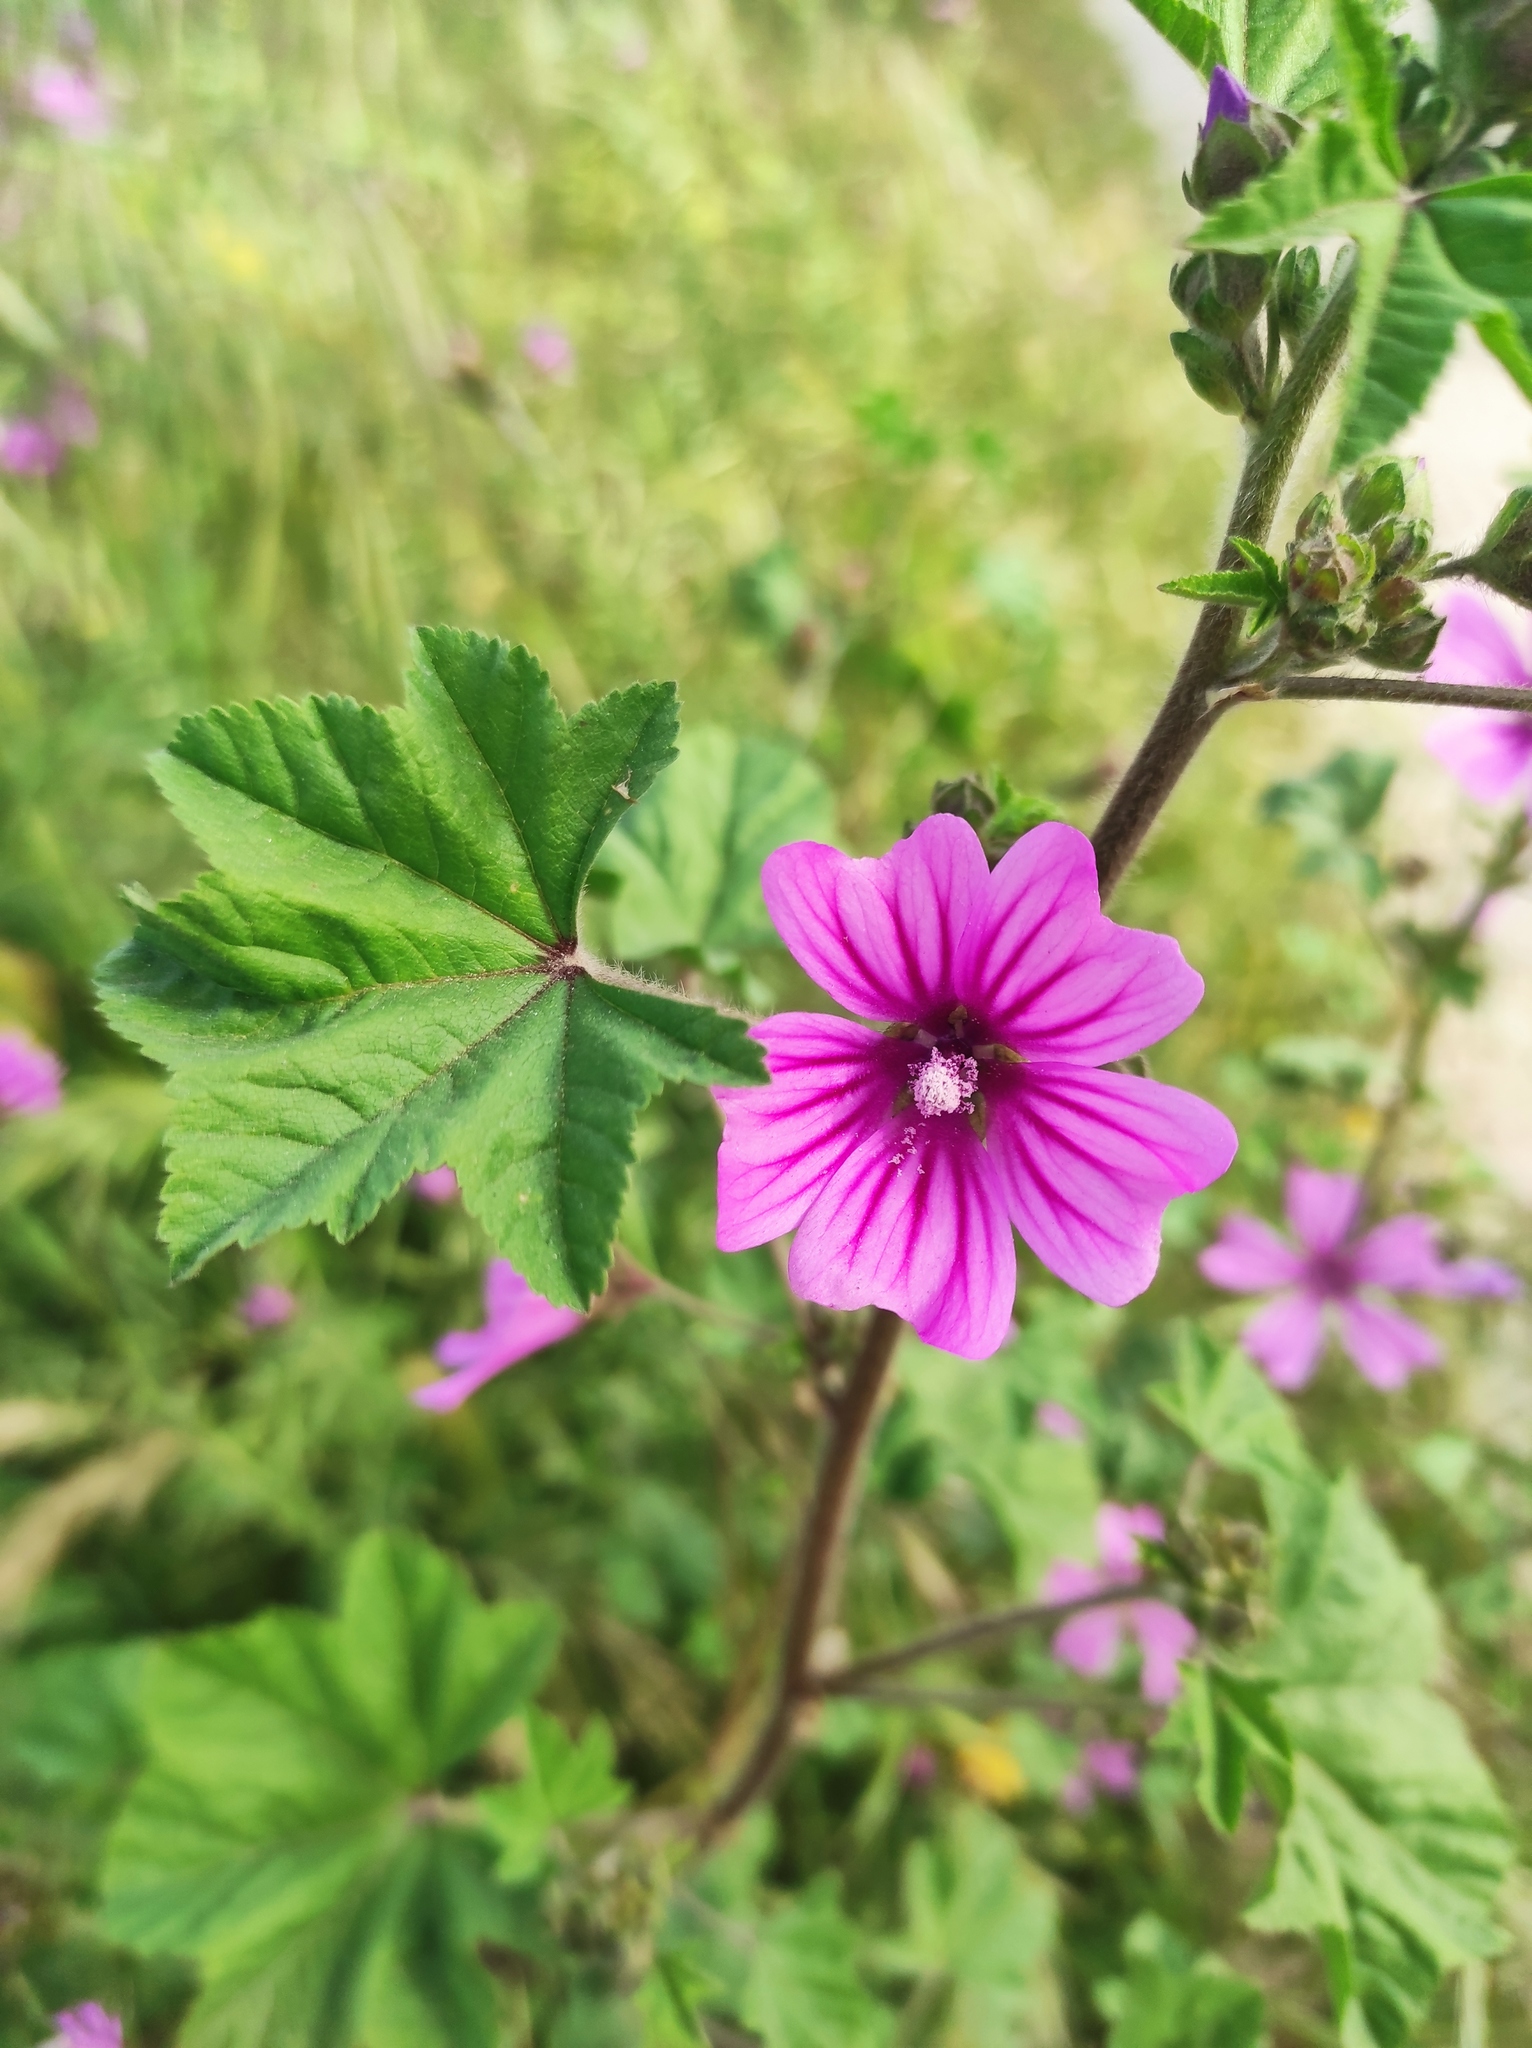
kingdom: Plantae
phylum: Tracheophyta
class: Magnoliopsida
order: Malvales
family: Malvaceae
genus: Malva
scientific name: Malva sylvestris
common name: Common mallow
